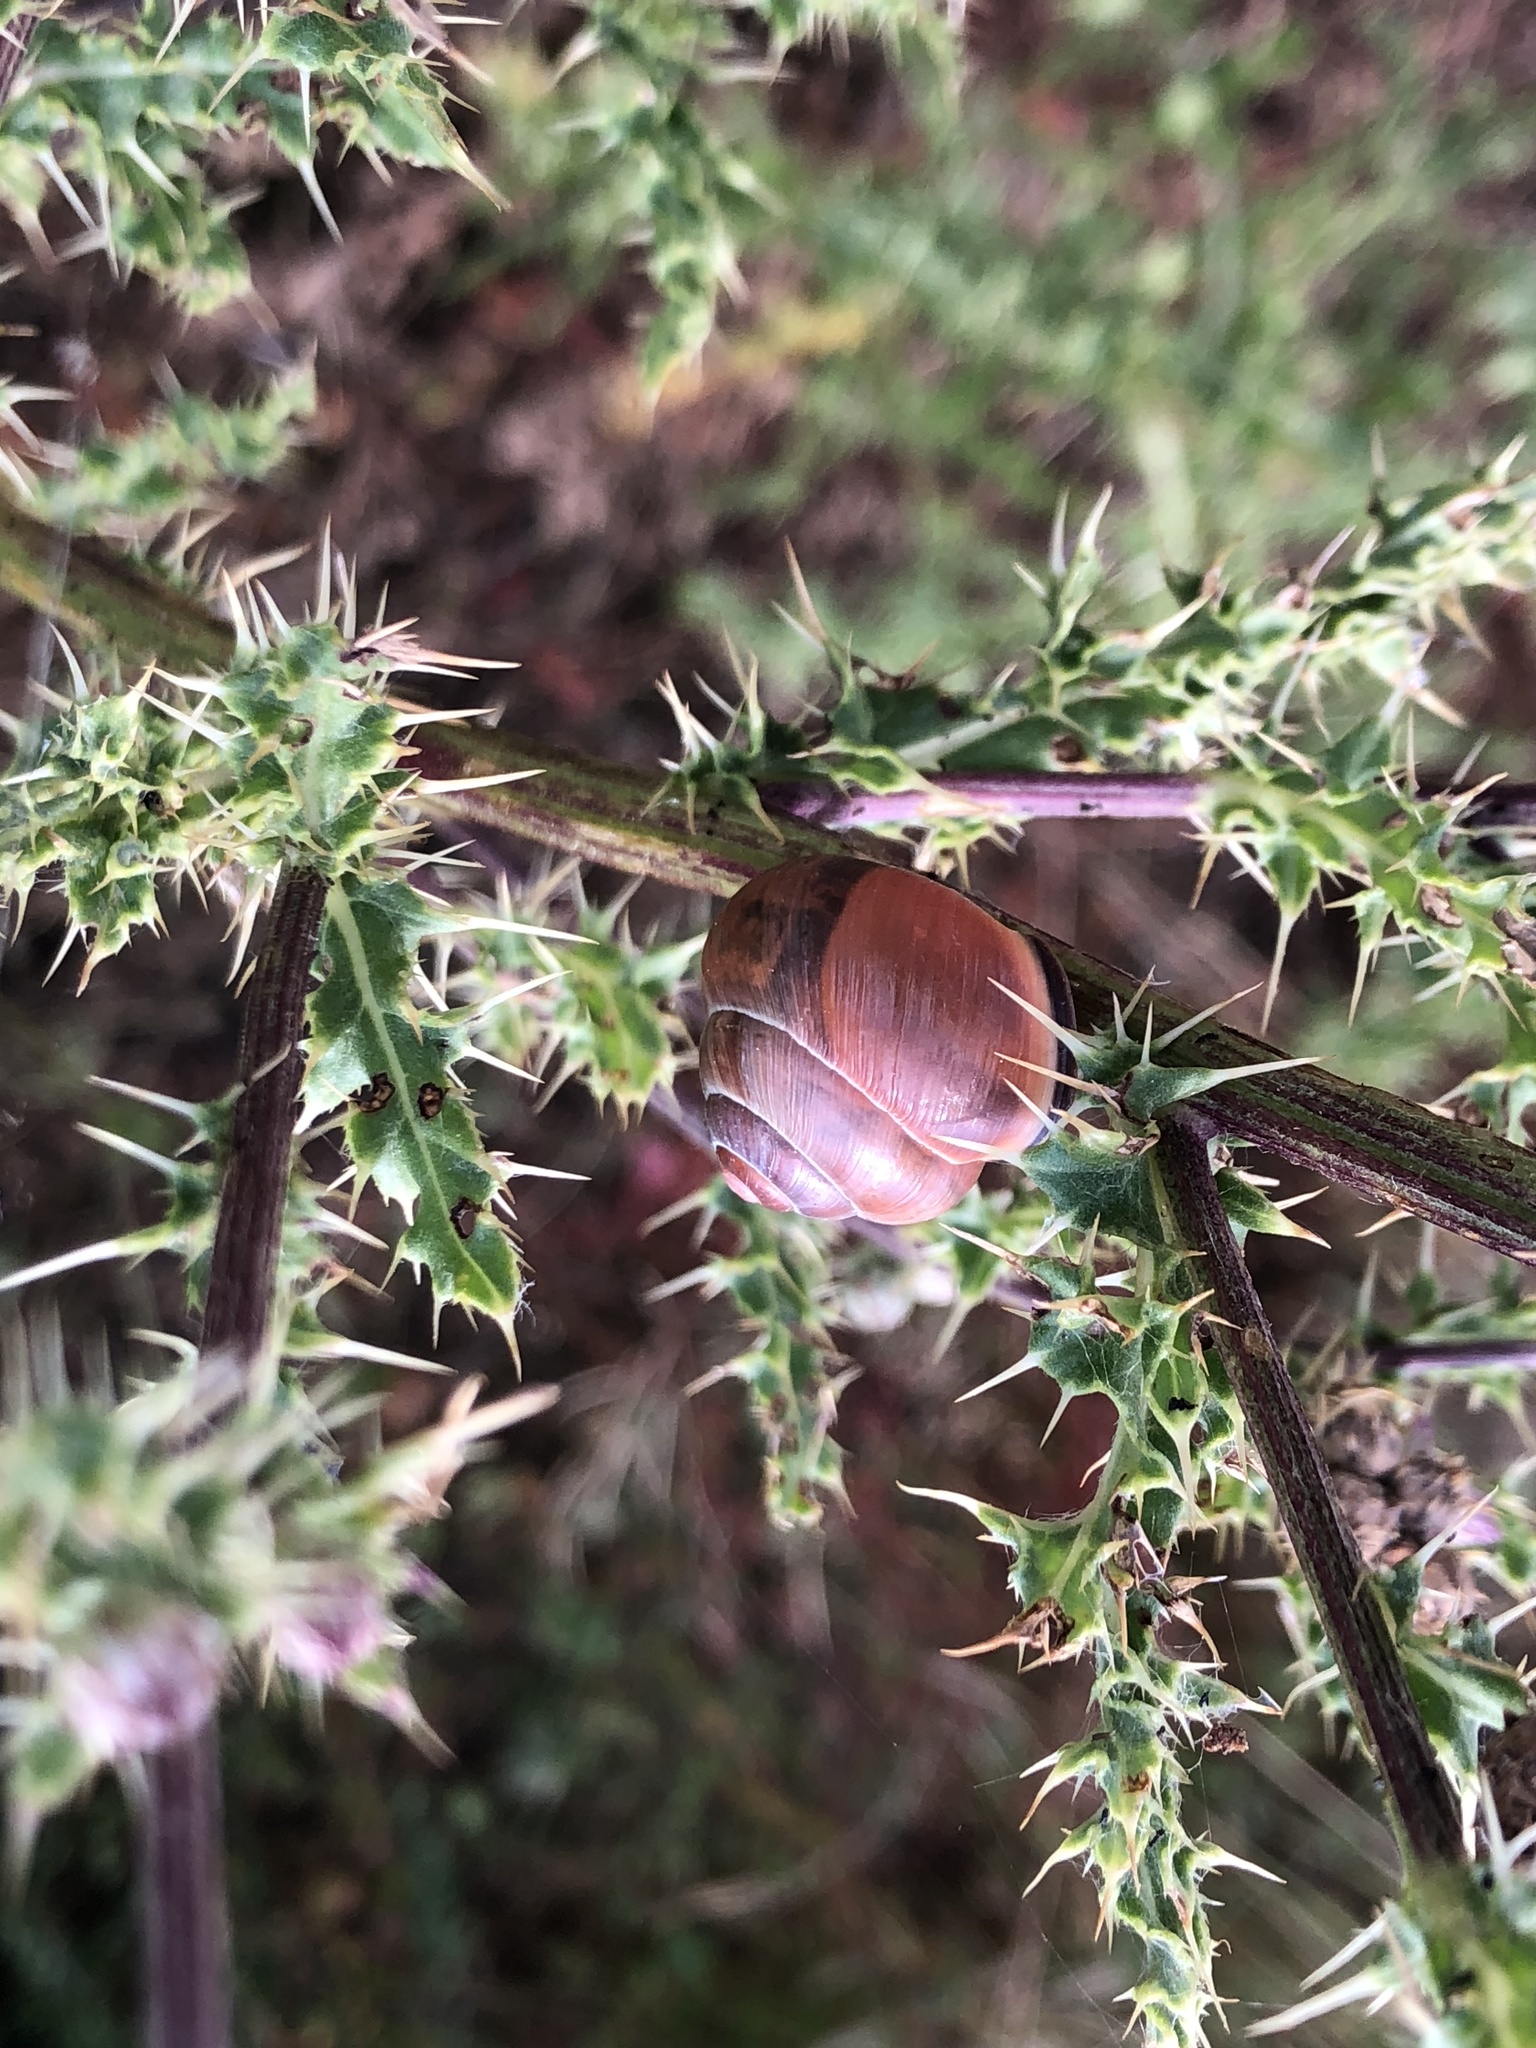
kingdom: Animalia
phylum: Mollusca
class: Gastropoda
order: Stylommatophora
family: Helicidae
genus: Cepaea
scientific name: Cepaea nemoralis
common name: Grovesnail
